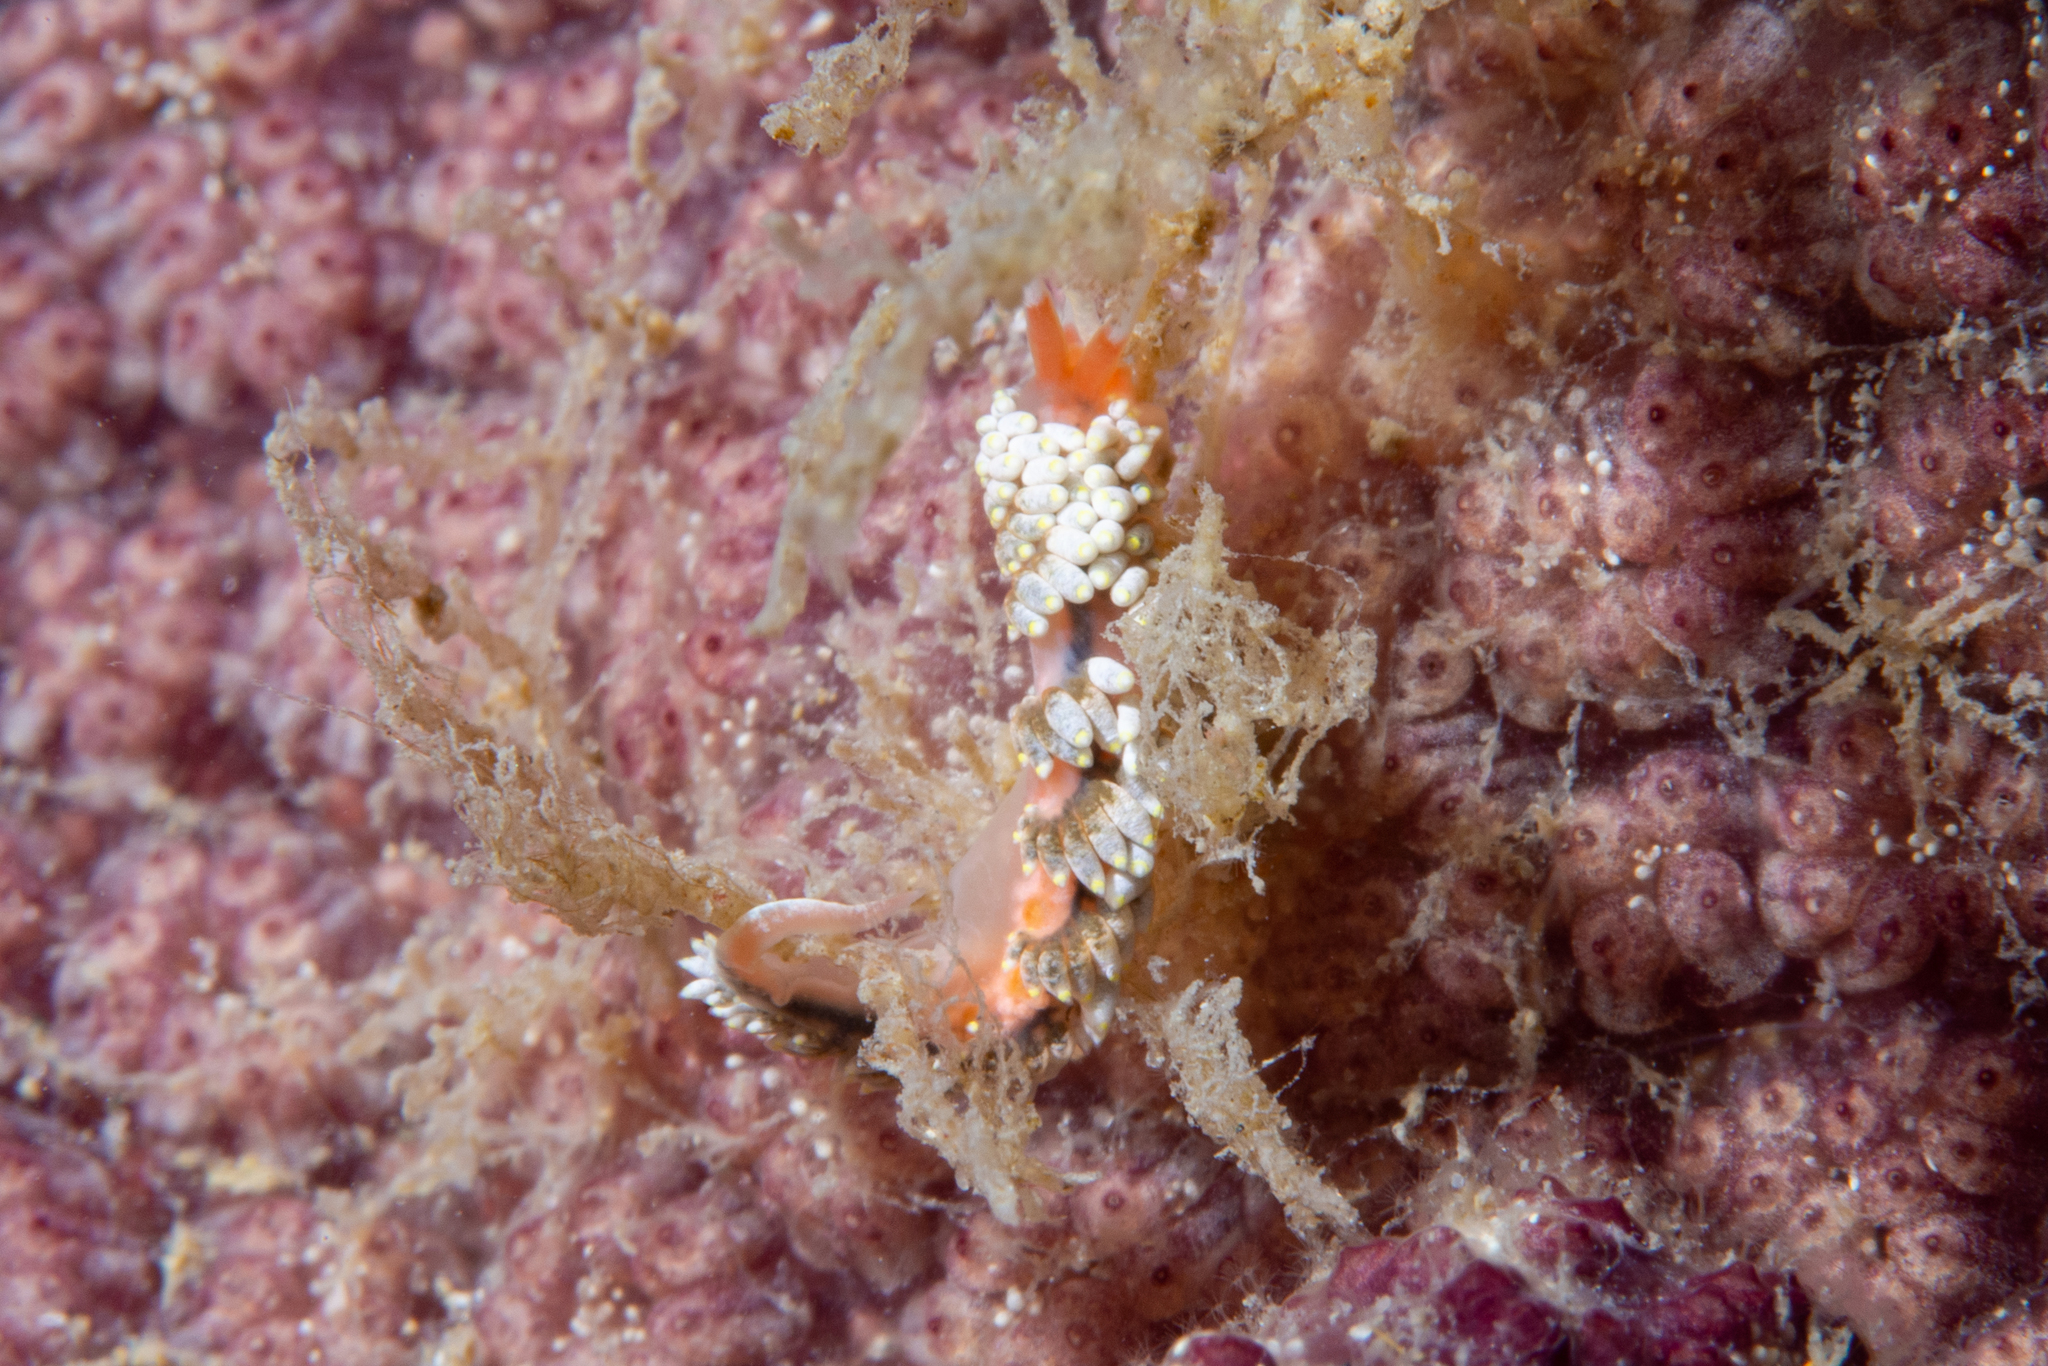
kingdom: Animalia
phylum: Mollusca
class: Gastropoda
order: Nudibranchia
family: Trinchesiidae
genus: Trinchesia
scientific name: Trinchesia catachroma
